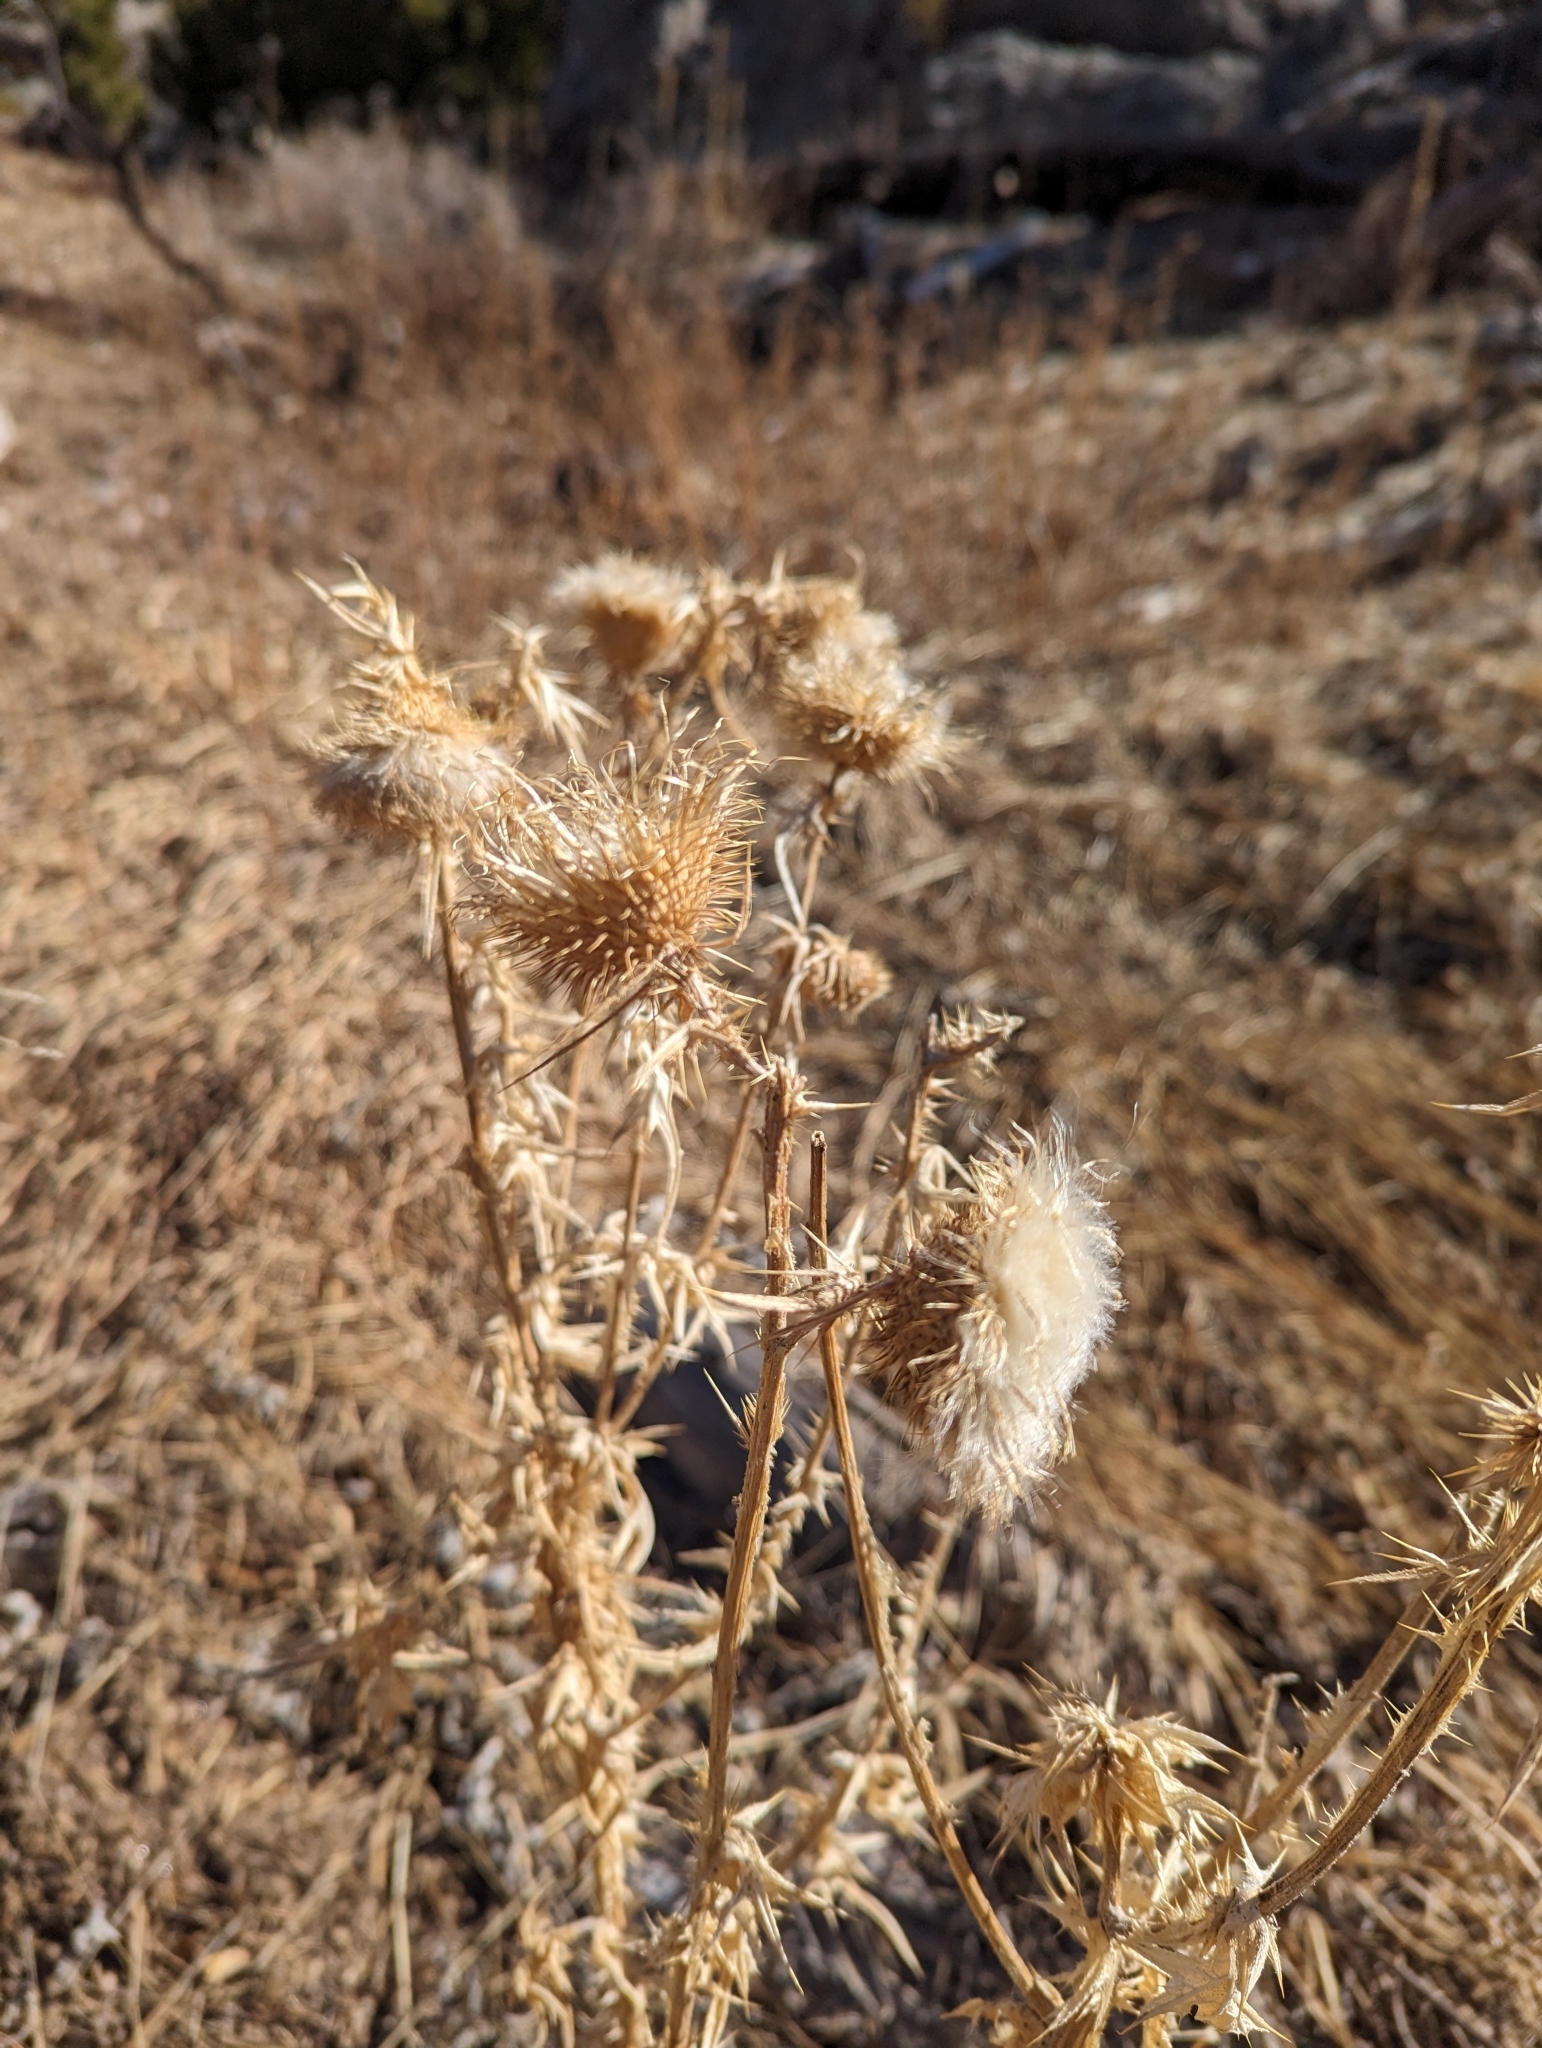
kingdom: Plantae
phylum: Tracheophyta
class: Magnoliopsida
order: Asterales
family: Asteraceae
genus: Cirsium
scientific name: Cirsium vulgare
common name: Bull thistle
